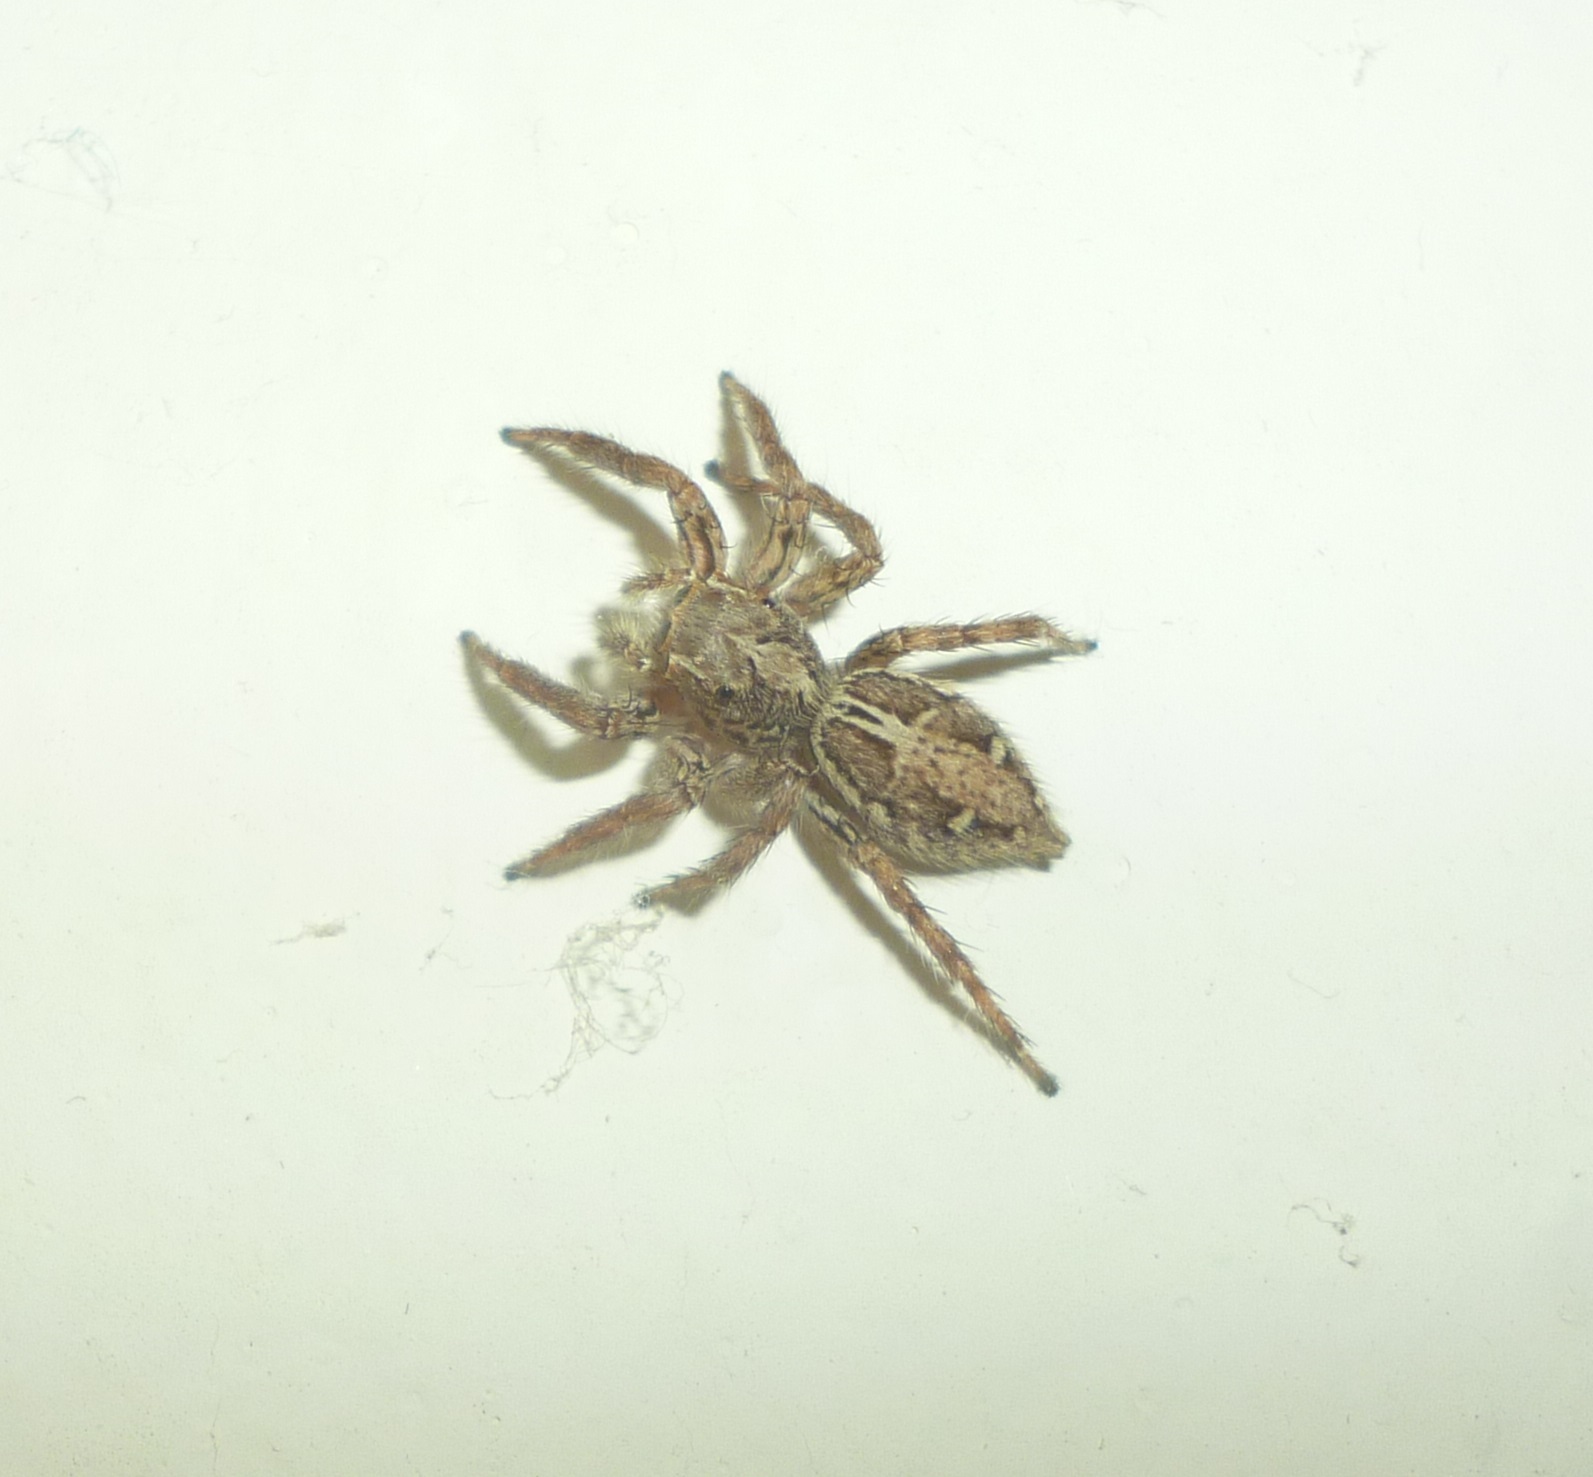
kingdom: Animalia
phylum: Arthropoda
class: Arachnida
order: Araneae
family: Salticidae
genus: Plexippus
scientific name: Plexippus paykulli
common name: Pantropical jumper
